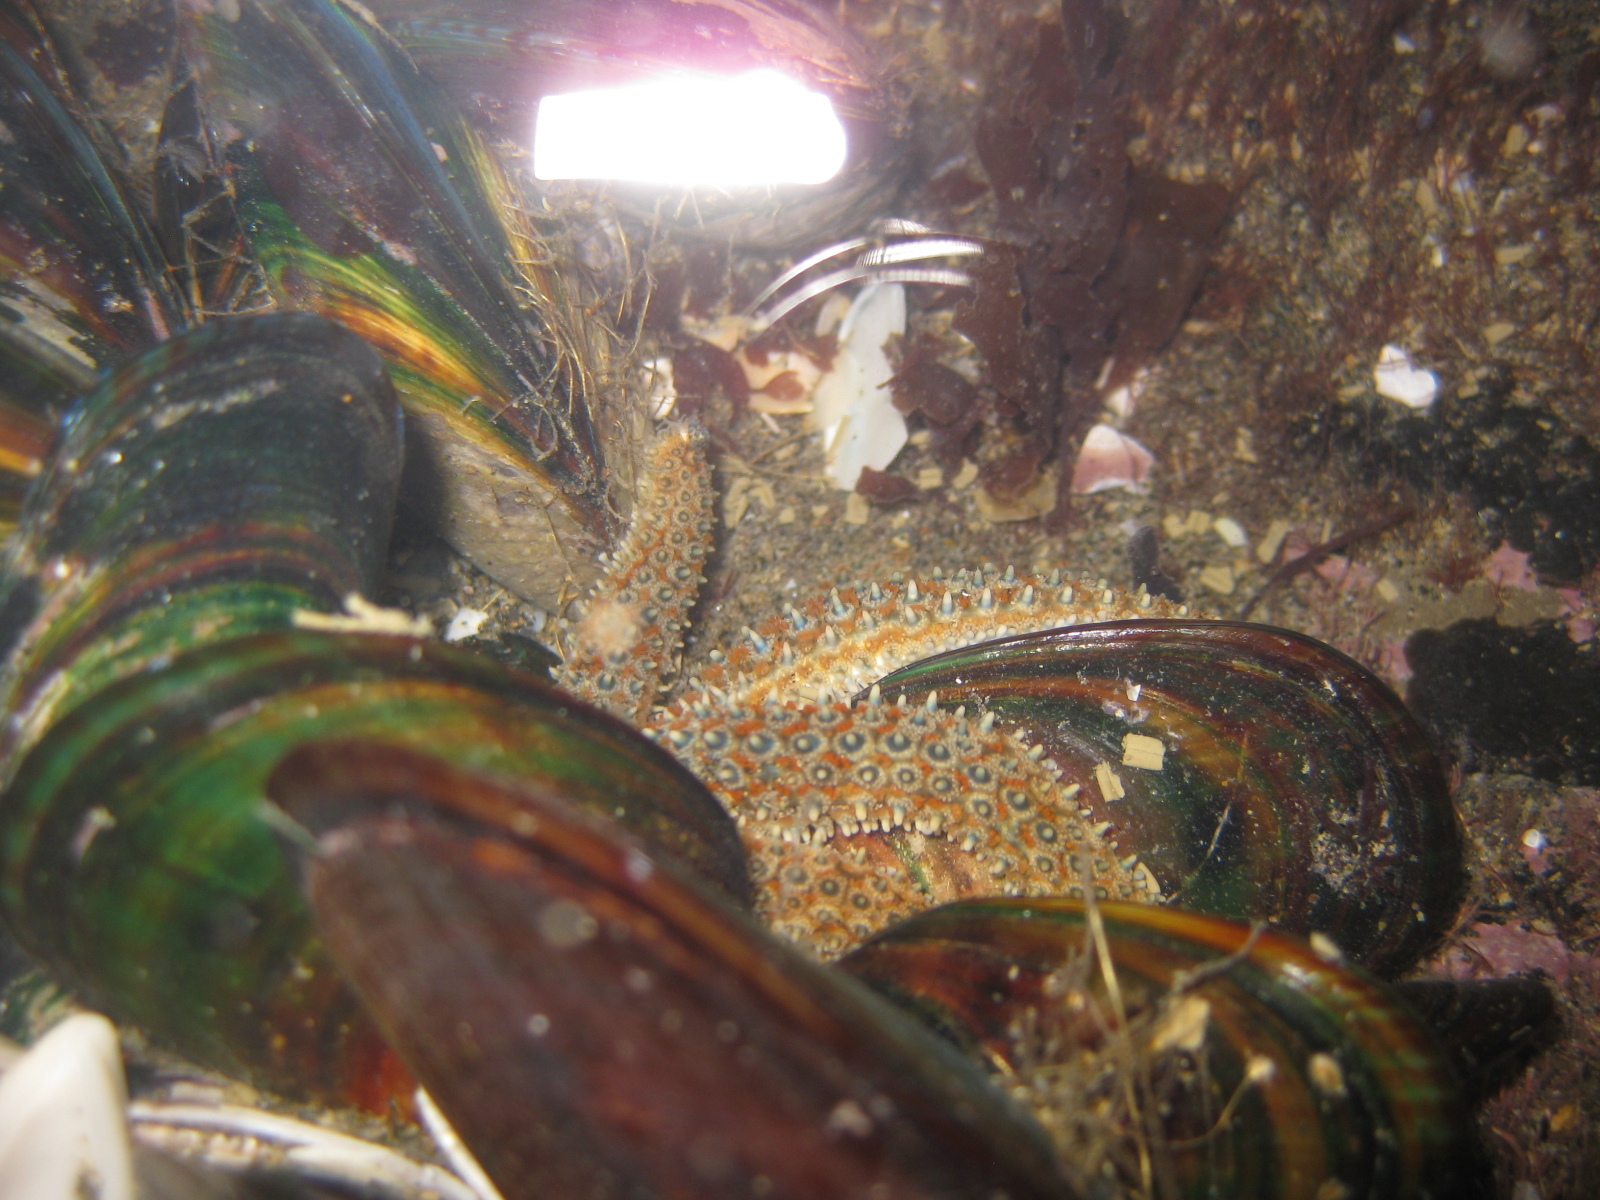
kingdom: Animalia
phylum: Echinodermata
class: Asteroidea
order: Forcipulatida
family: Asteriidae
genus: Coscinasterias
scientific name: Coscinasterias muricata
